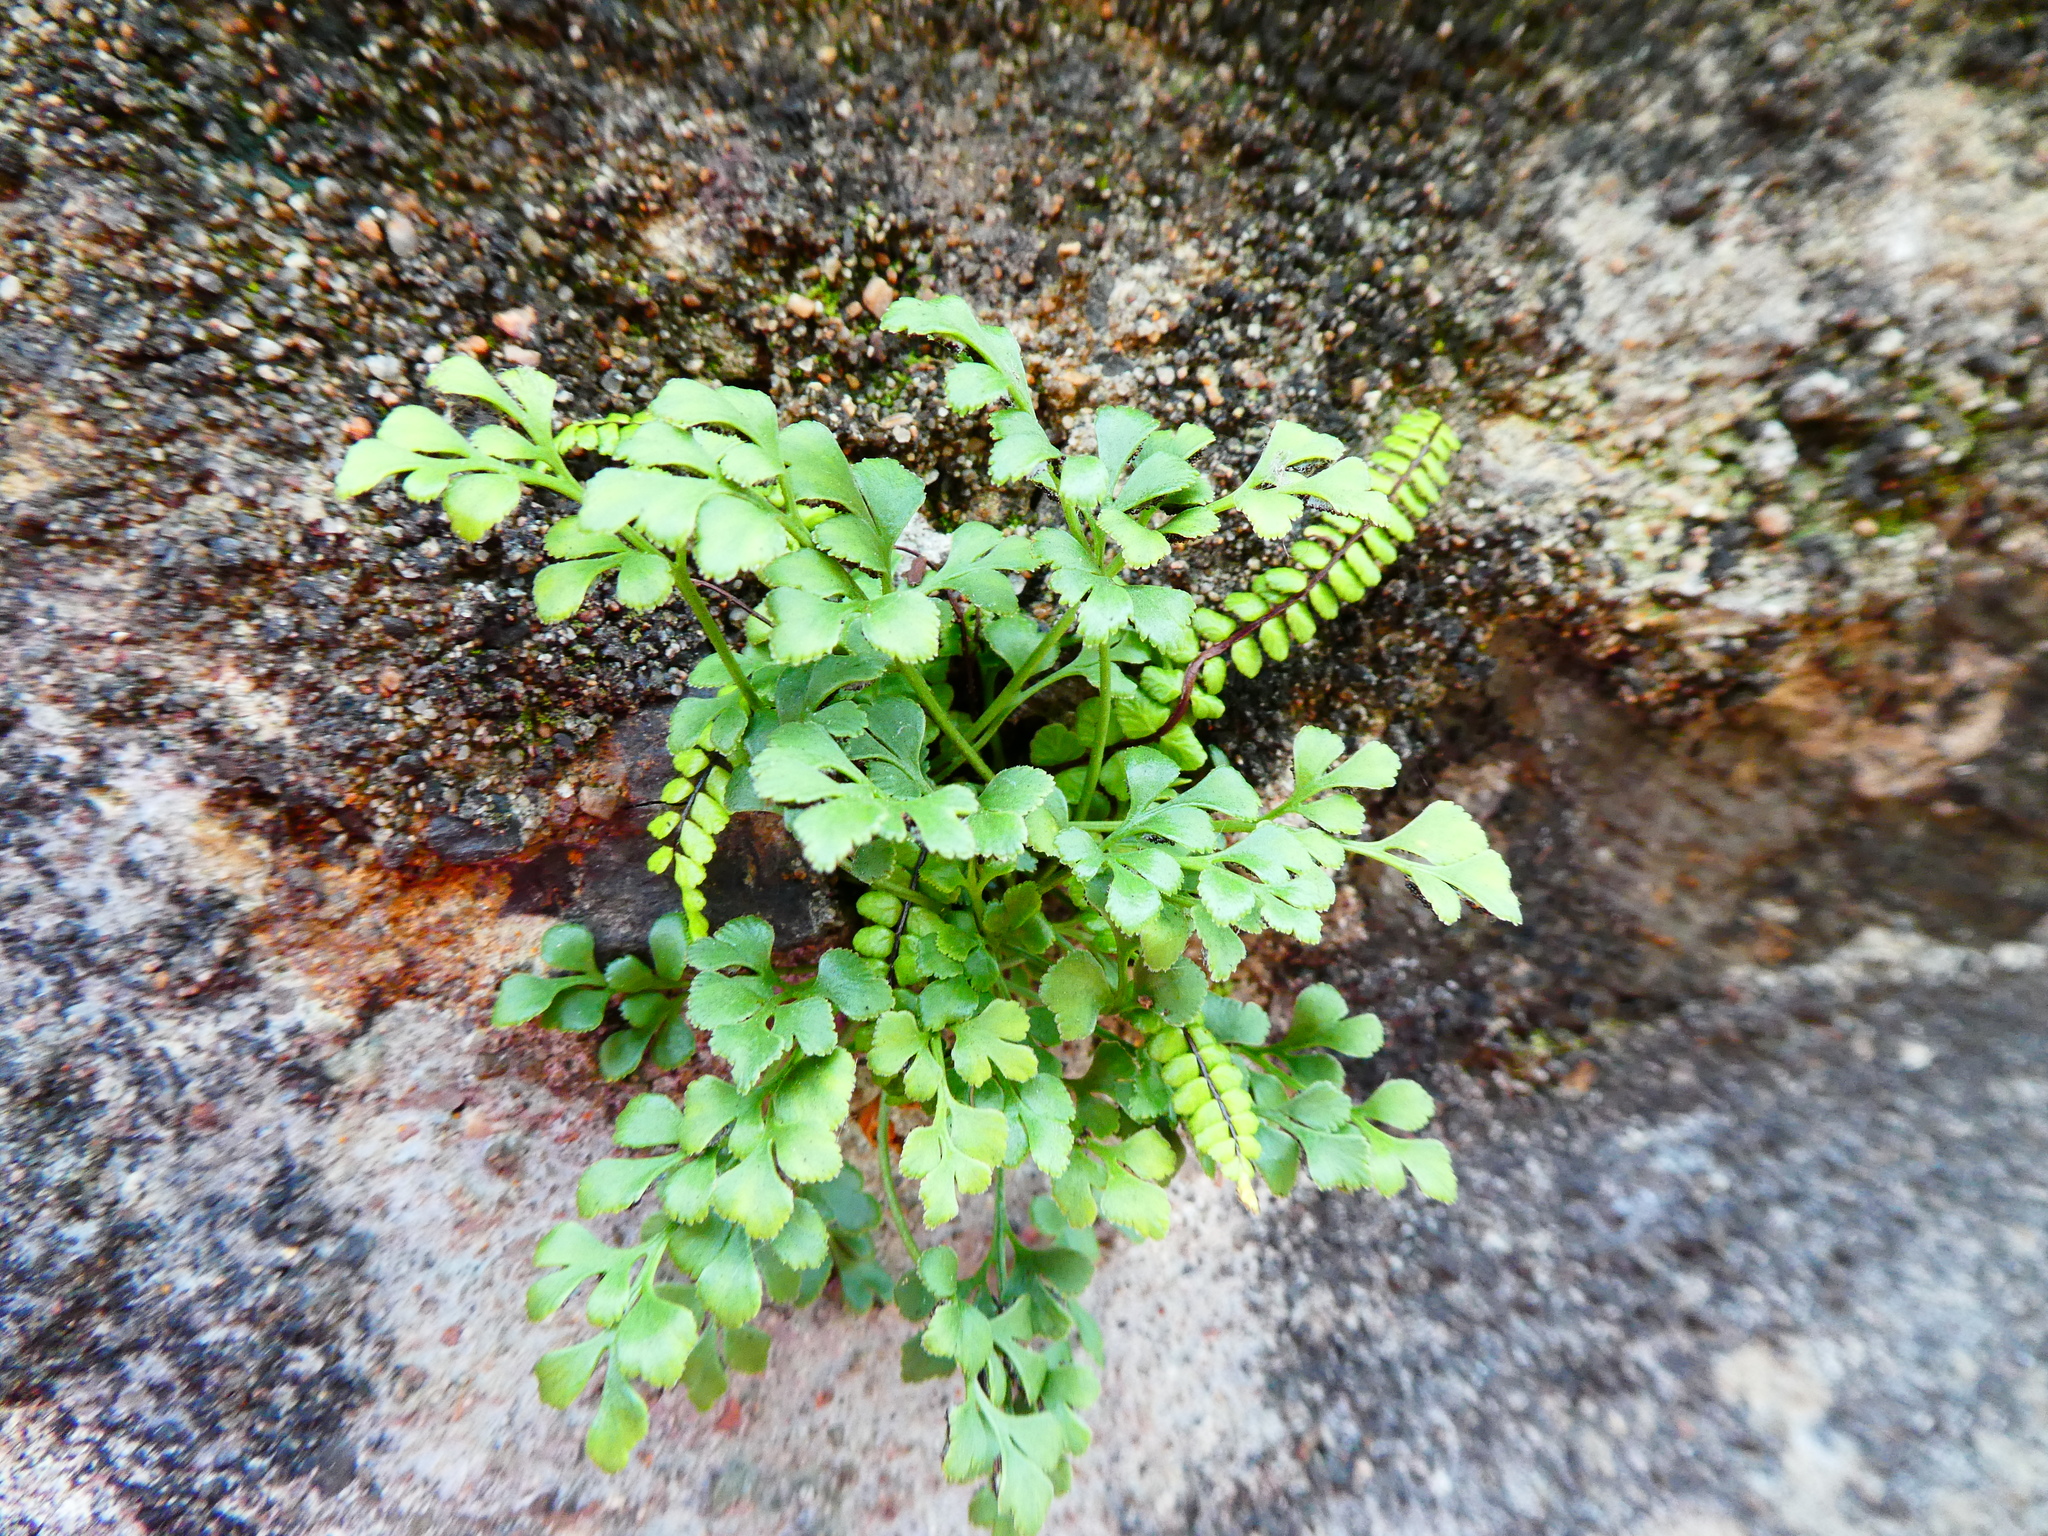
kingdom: Plantae
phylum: Tracheophyta
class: Polypodiopsida
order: Polypodiales
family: Aspleniaceae
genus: Asplenium
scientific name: Asplenium ruta-muraria
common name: Wall-rue
